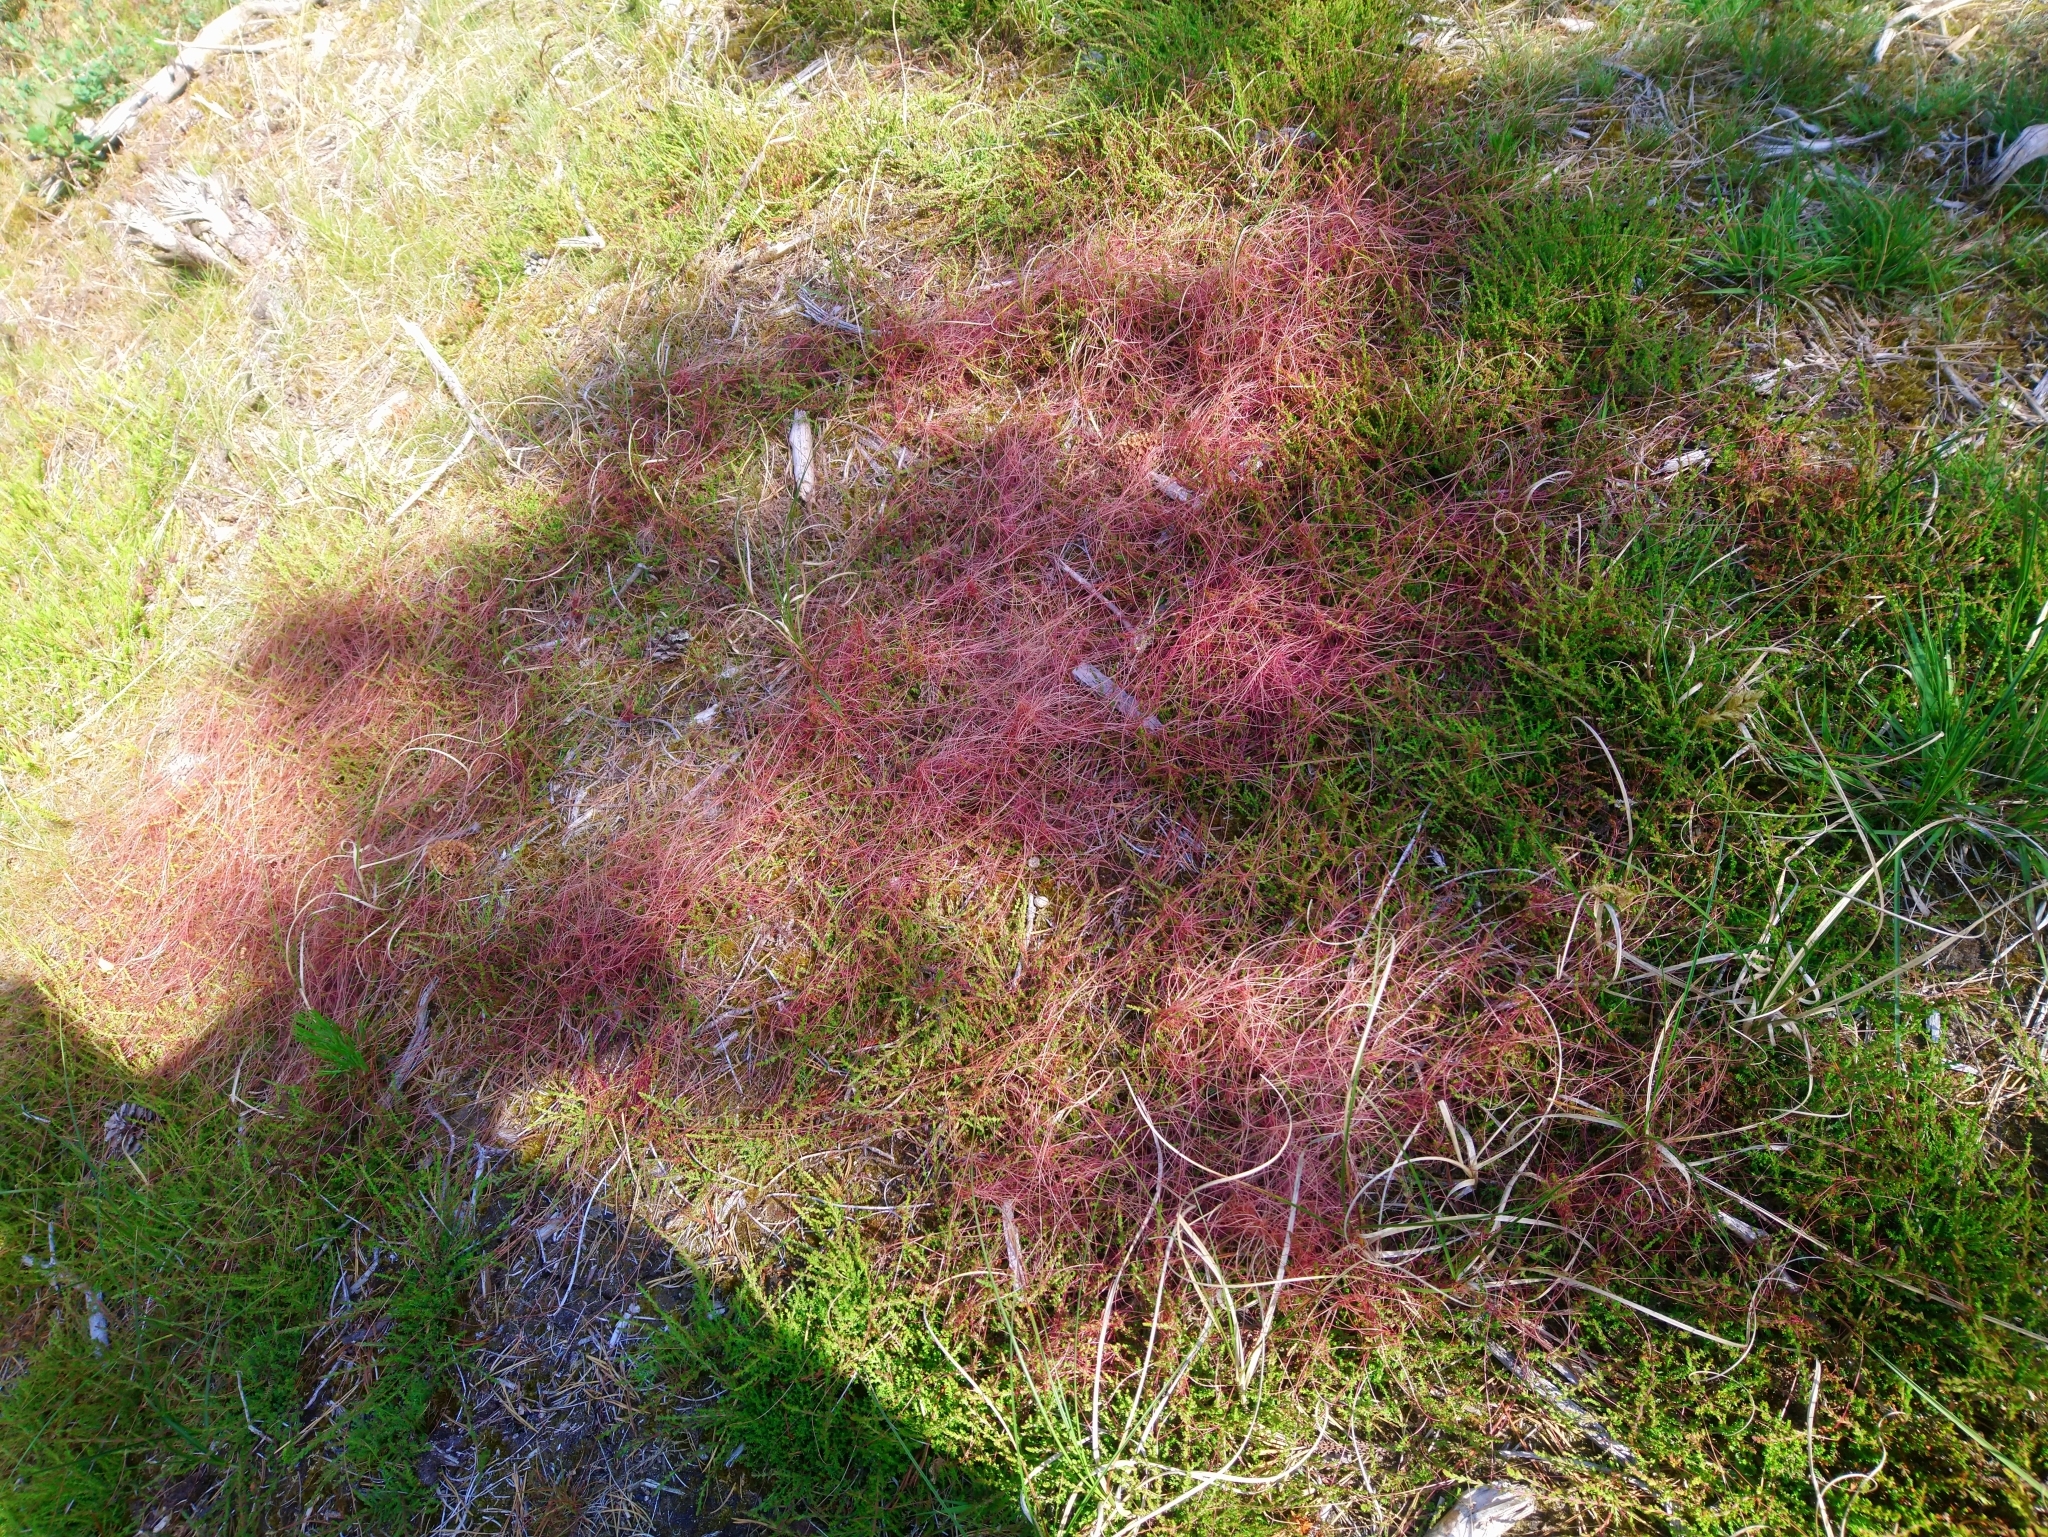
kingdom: Plantae
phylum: Tracheophyta
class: Magnoliopsida
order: Solanales
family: Convolvulaceae
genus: Cuscuta
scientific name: Cuscuta epithymum
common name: Clover dodder
